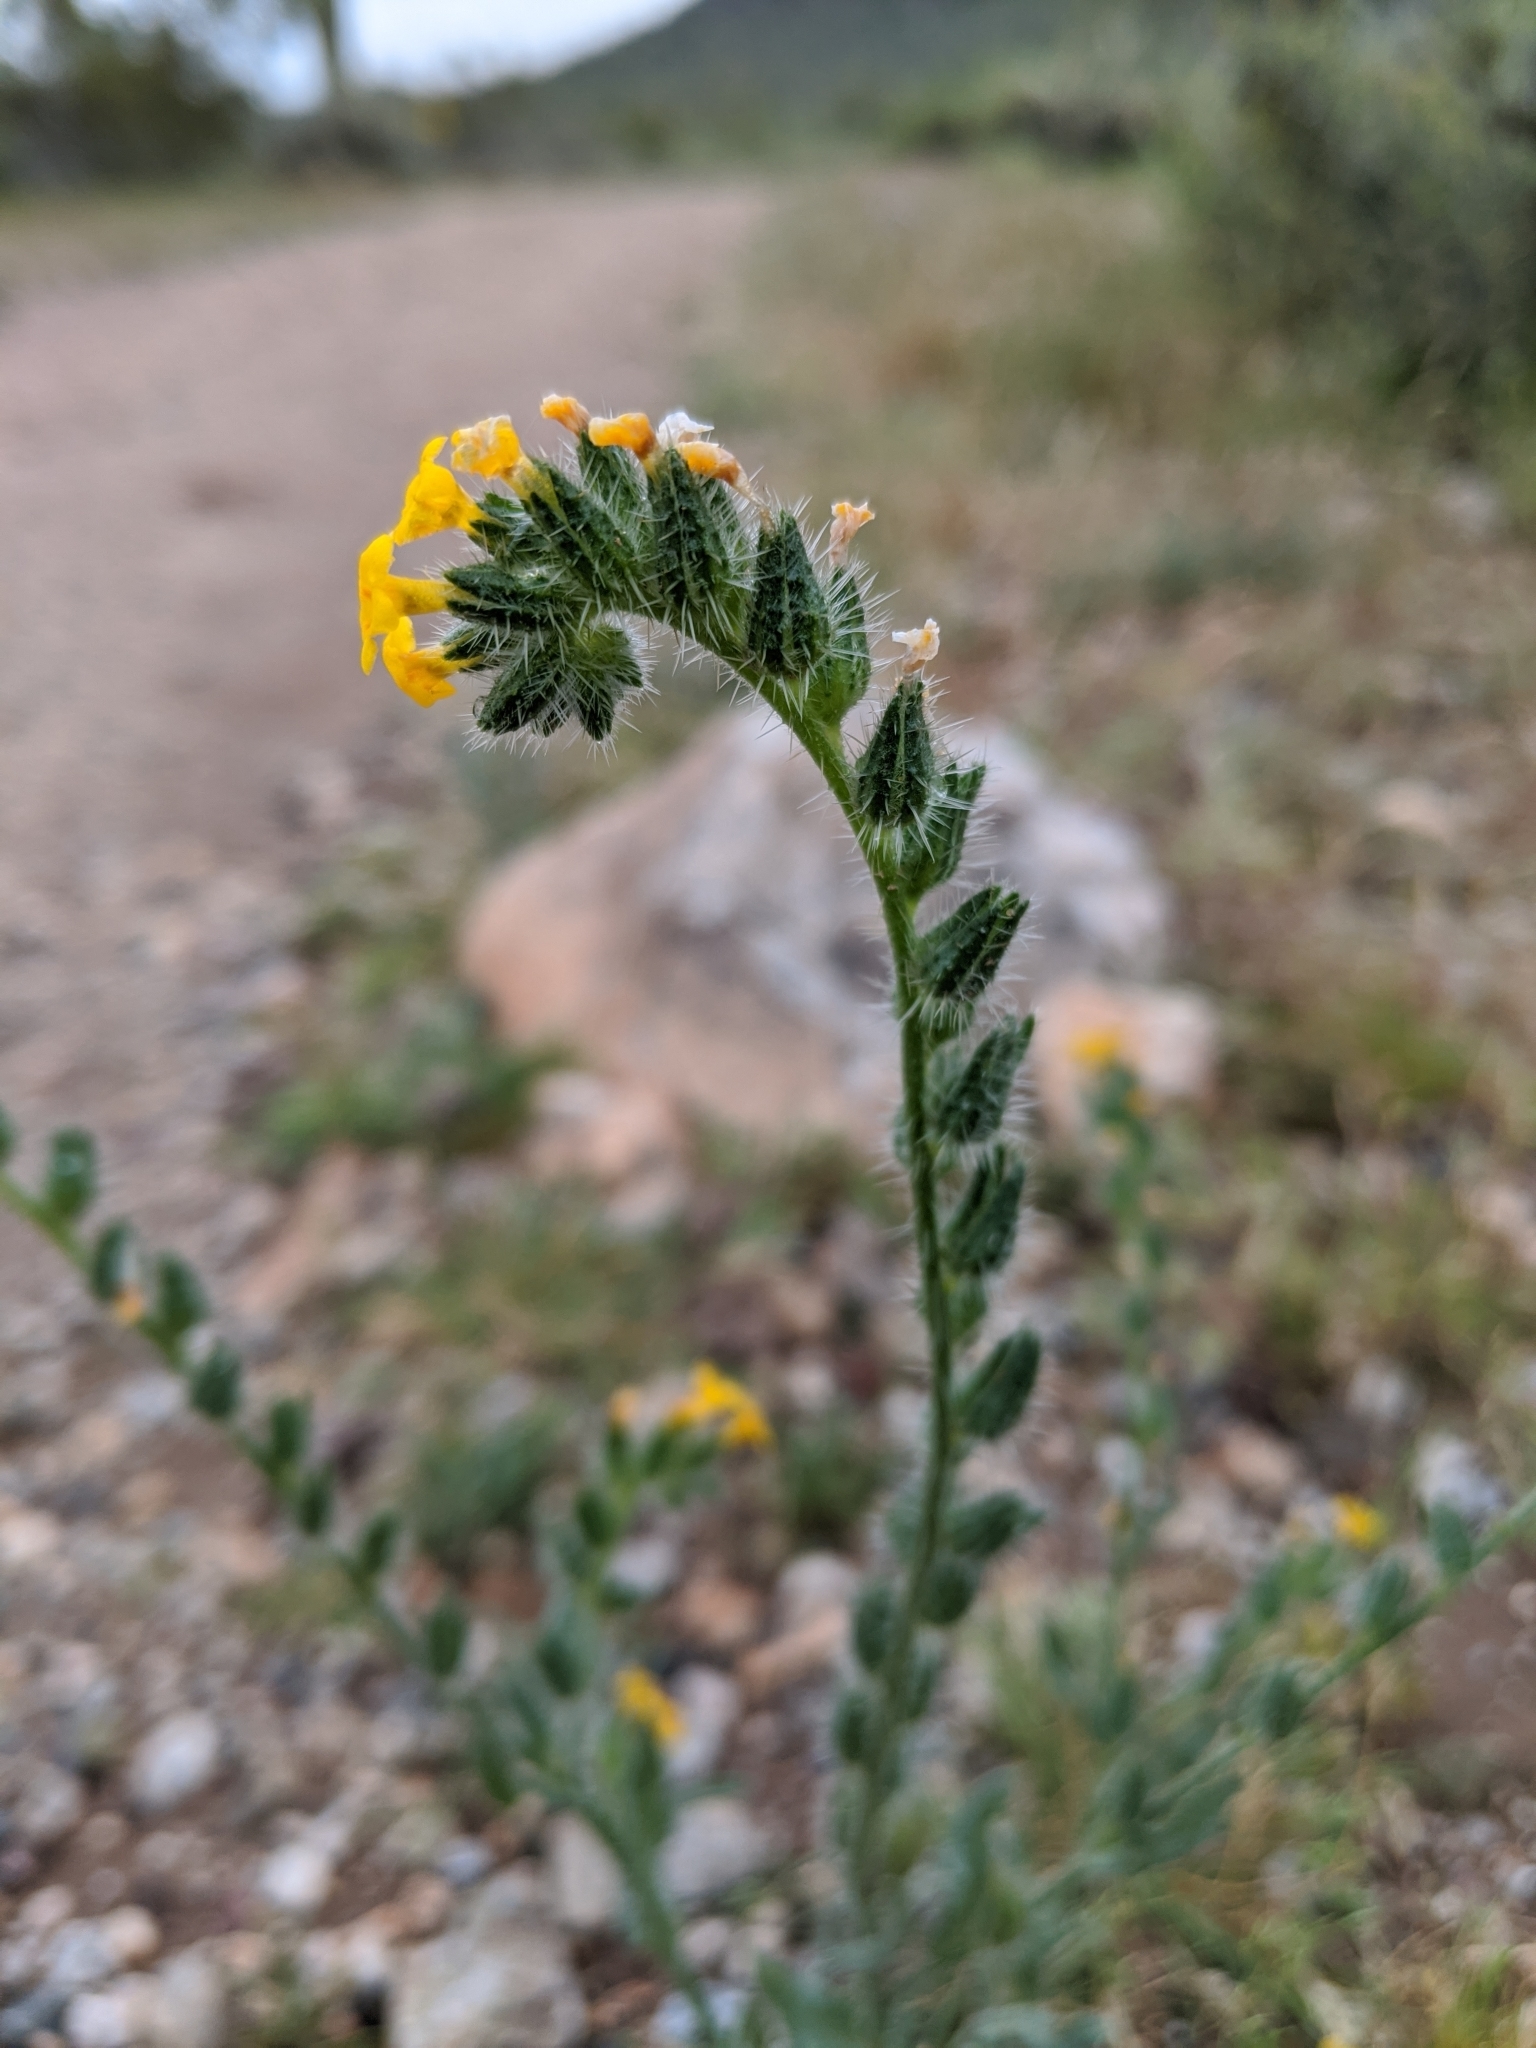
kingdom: Plantae
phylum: Tracheophyta
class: Magnoliopsida
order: Boraginales
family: Boraginaceae
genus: Amsinckia
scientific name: Amsinckia menziesii
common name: Menzies' fiddleneck
